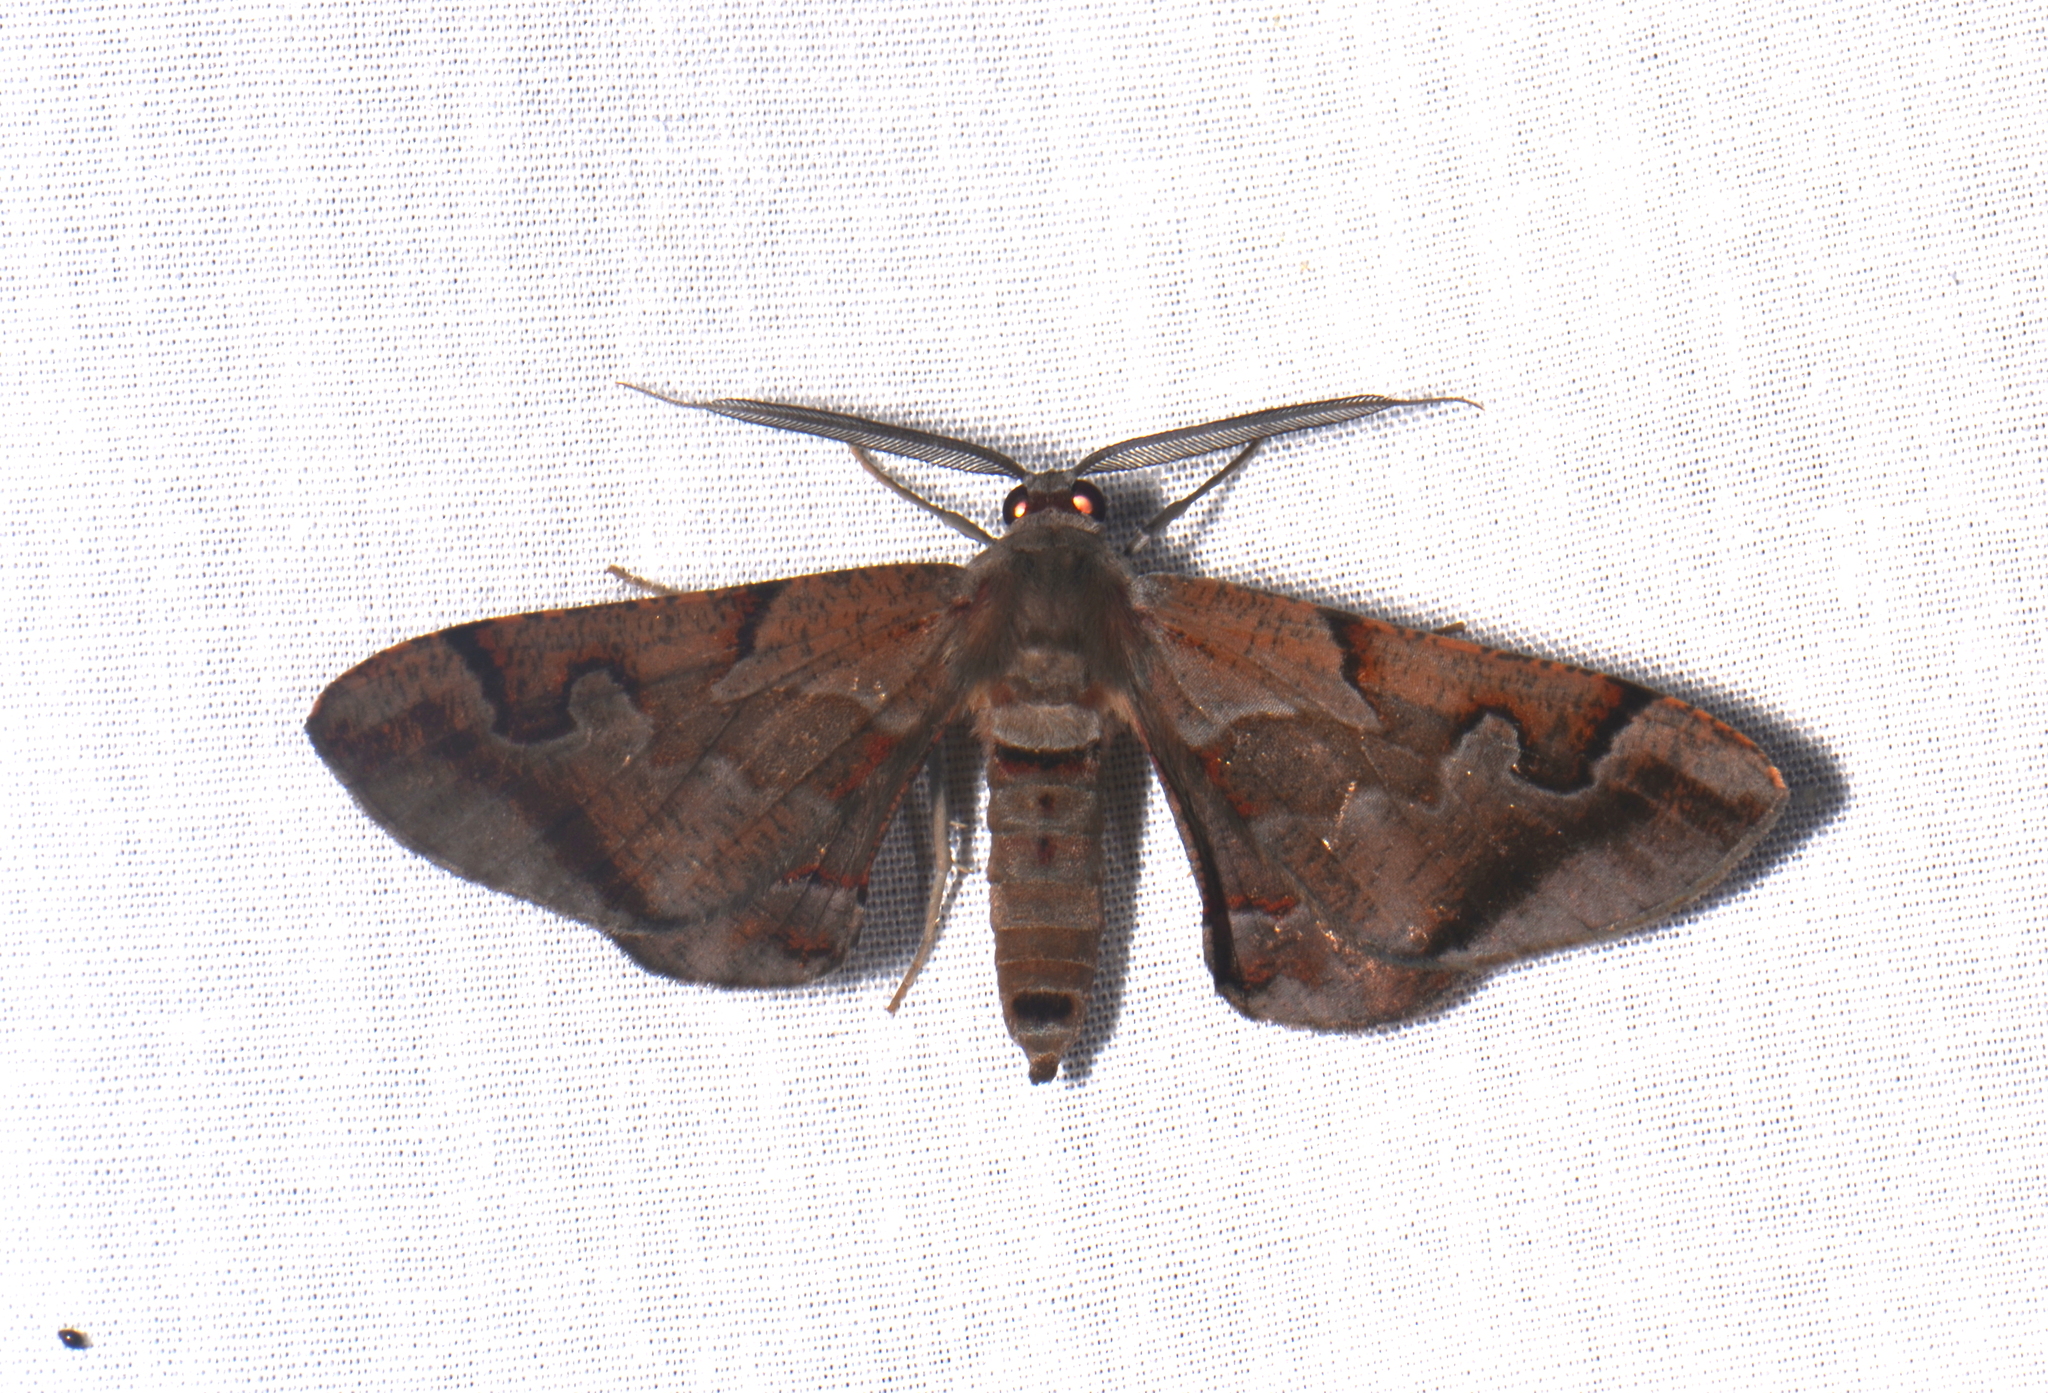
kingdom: Animalia
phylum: Arthropoda
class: Insecta
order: Lepidoptera
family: Geometridae
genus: Hypochrosis
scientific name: Hypochrosis binexata
